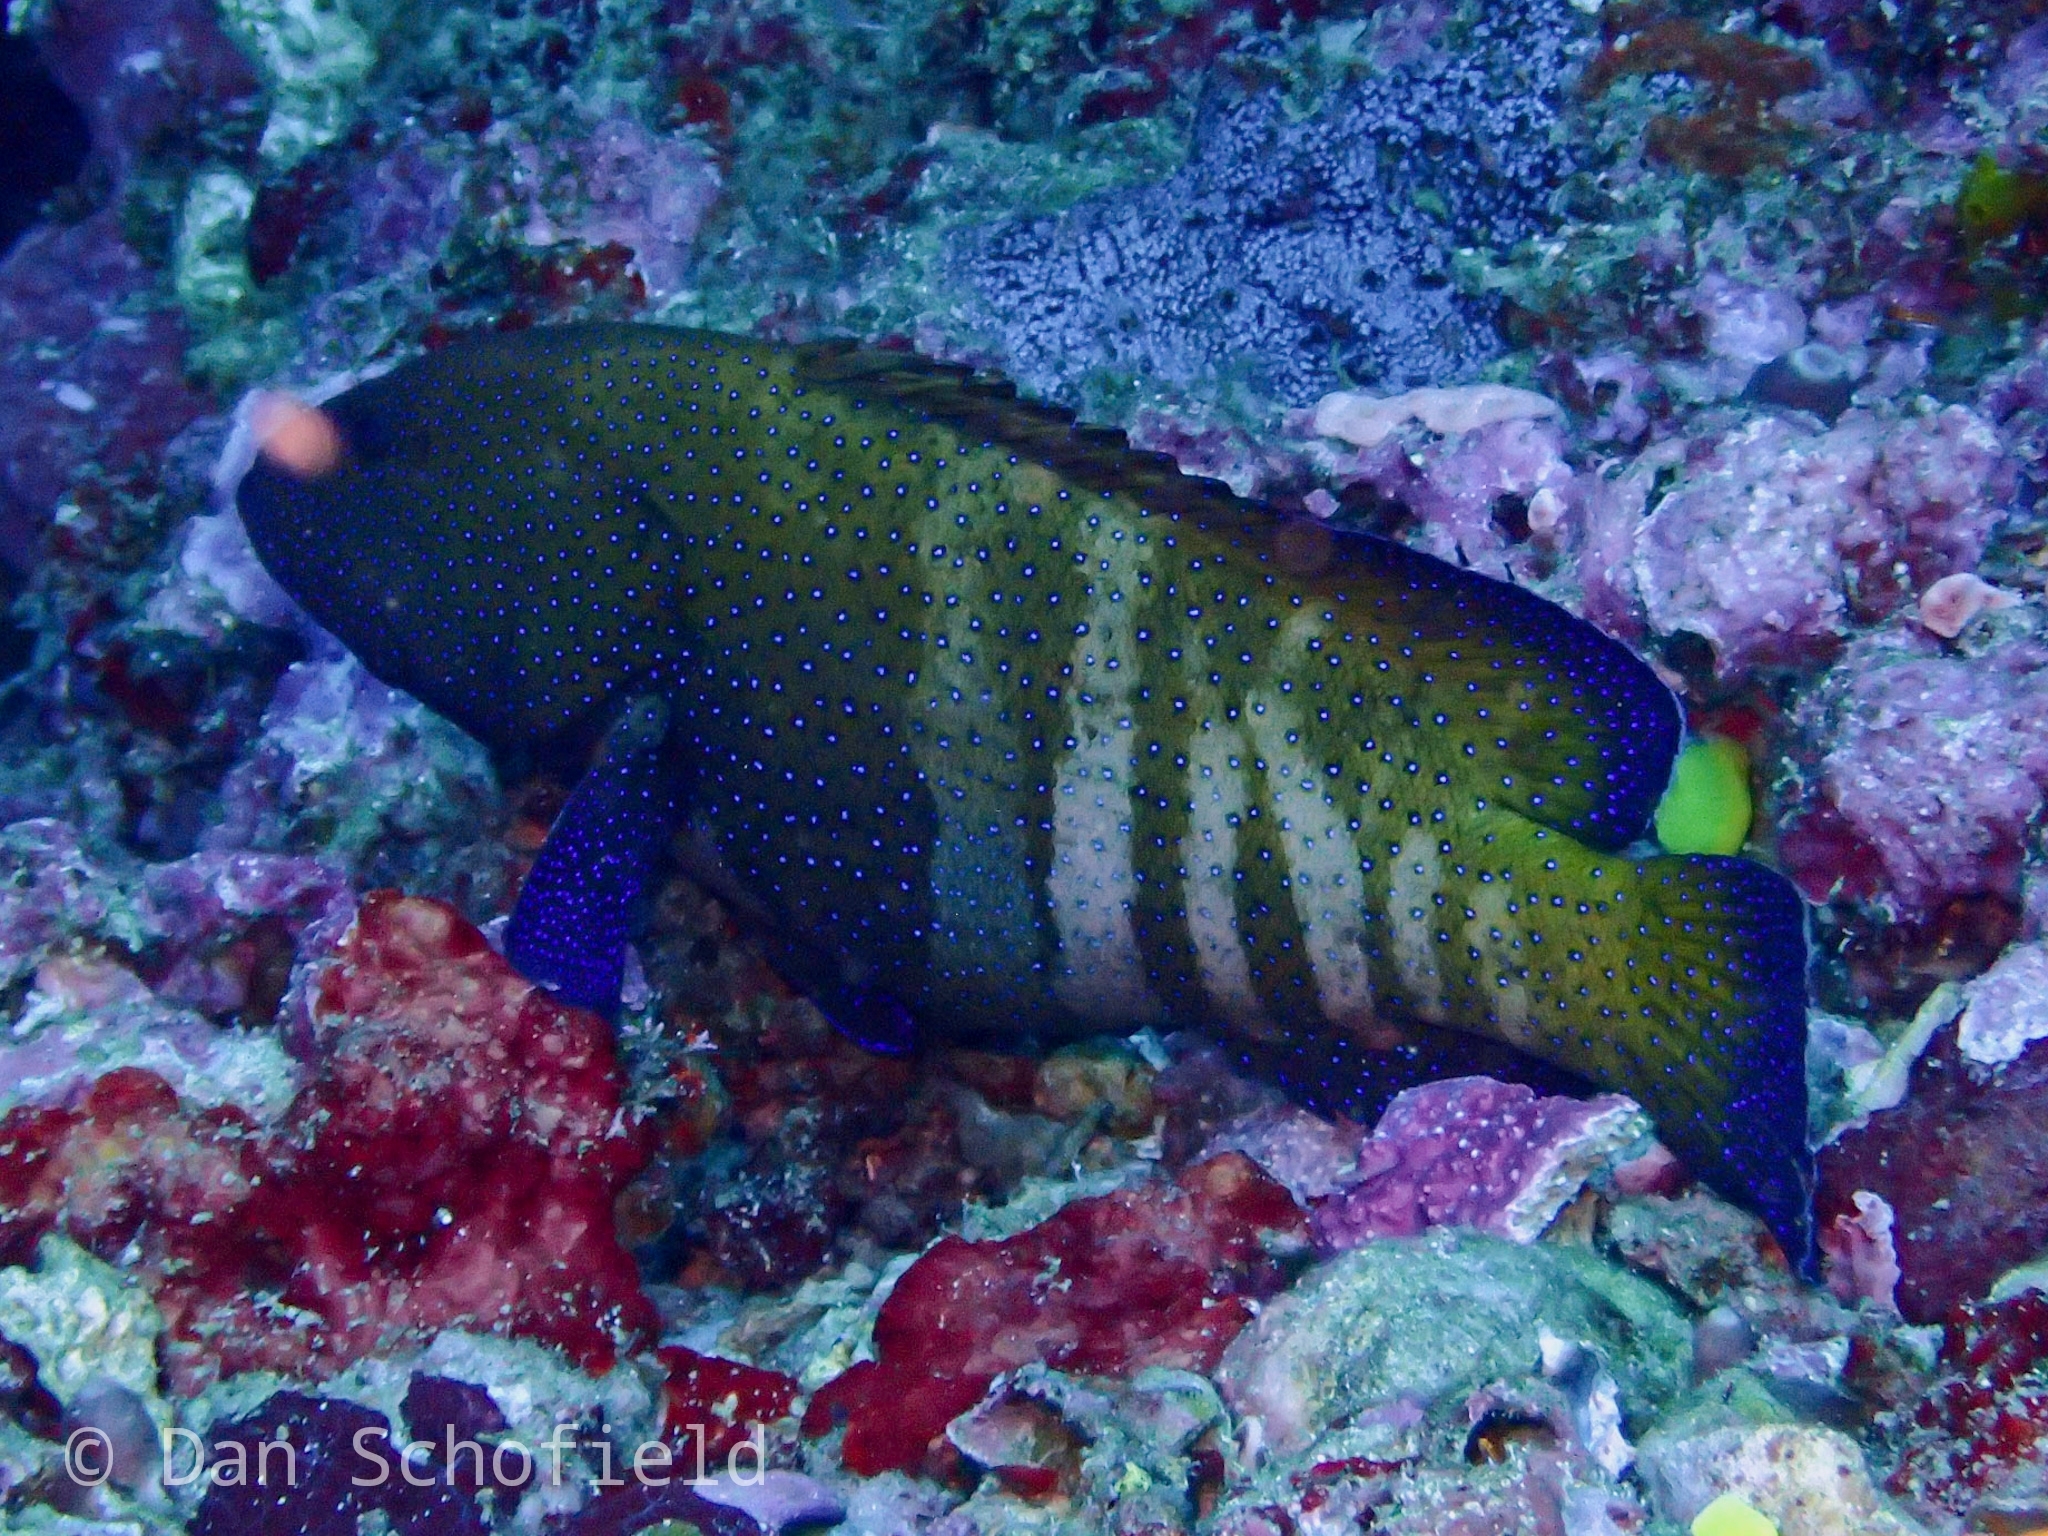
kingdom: Animalia
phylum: Chordata
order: Perciformes
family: Serranidae
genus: Cephalopholis
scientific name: Cephalopholis argus
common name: Peacock grouper
